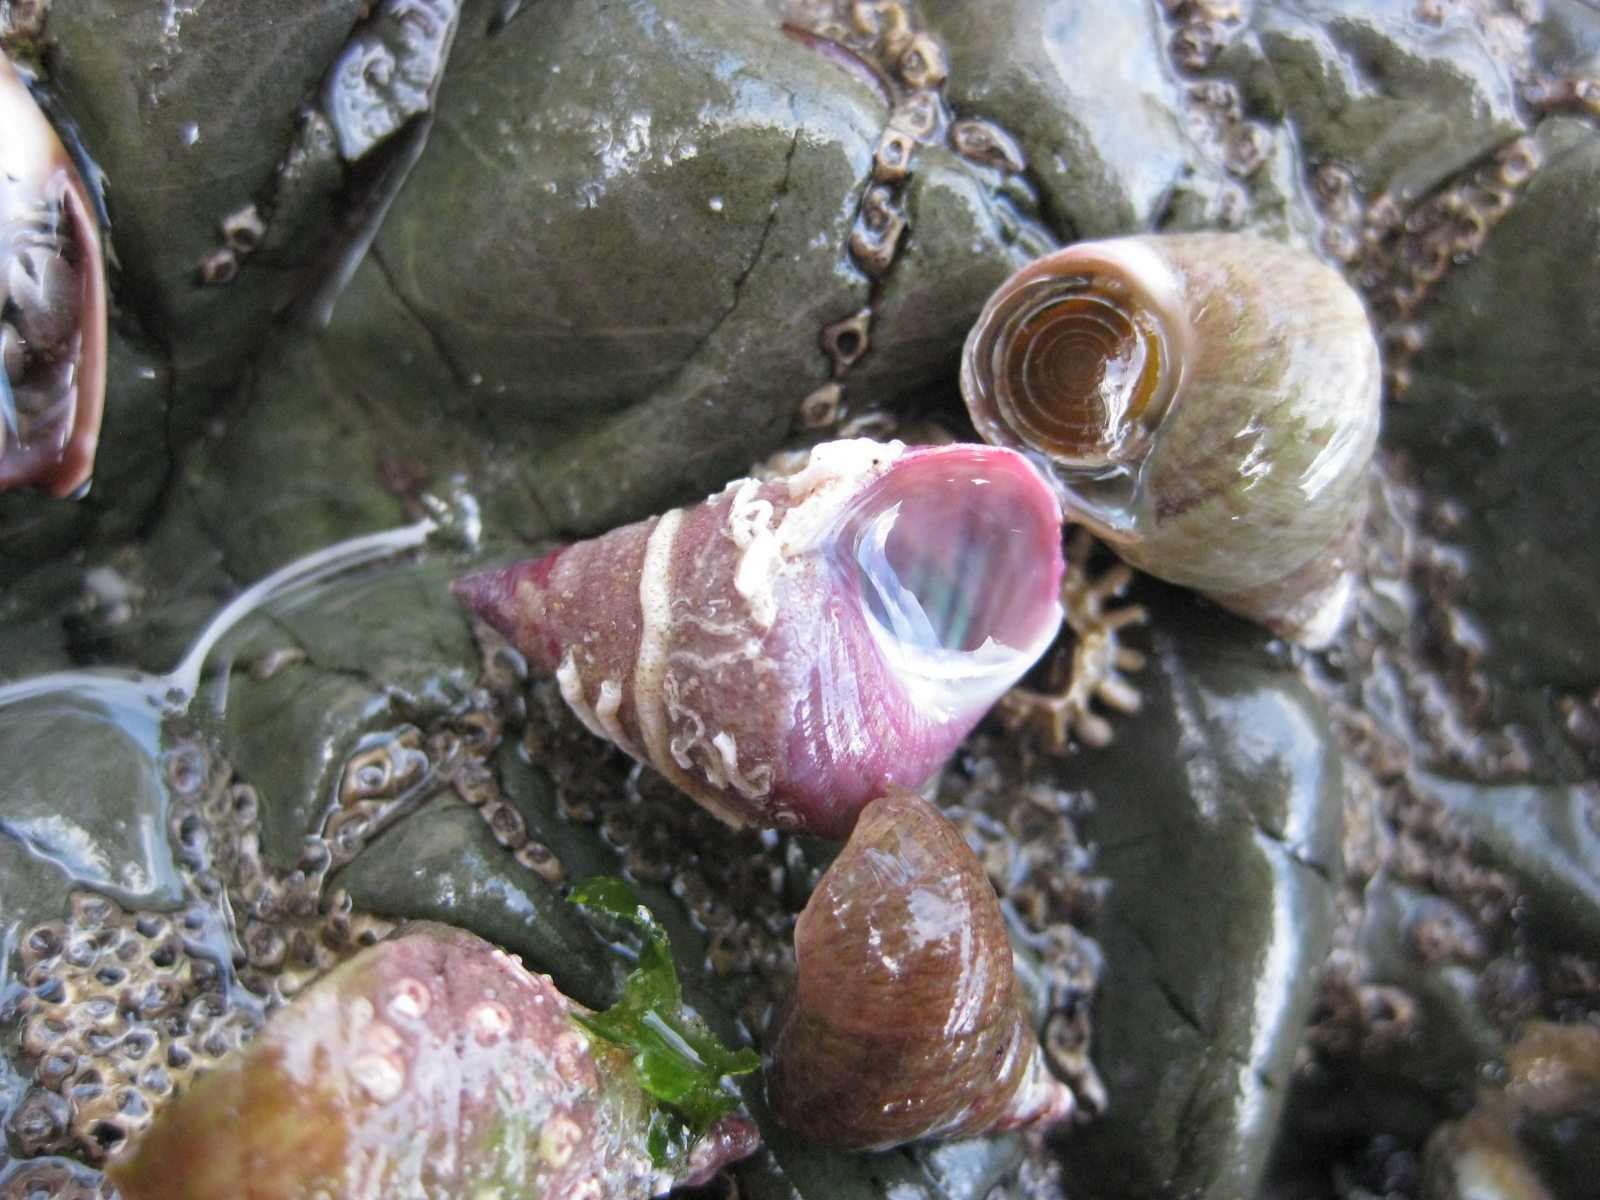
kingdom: Animalia
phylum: Mollusca
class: Gastropoda
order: Trochida
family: Trochidae
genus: Micrelenchus
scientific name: Micrelenchus purpureus
